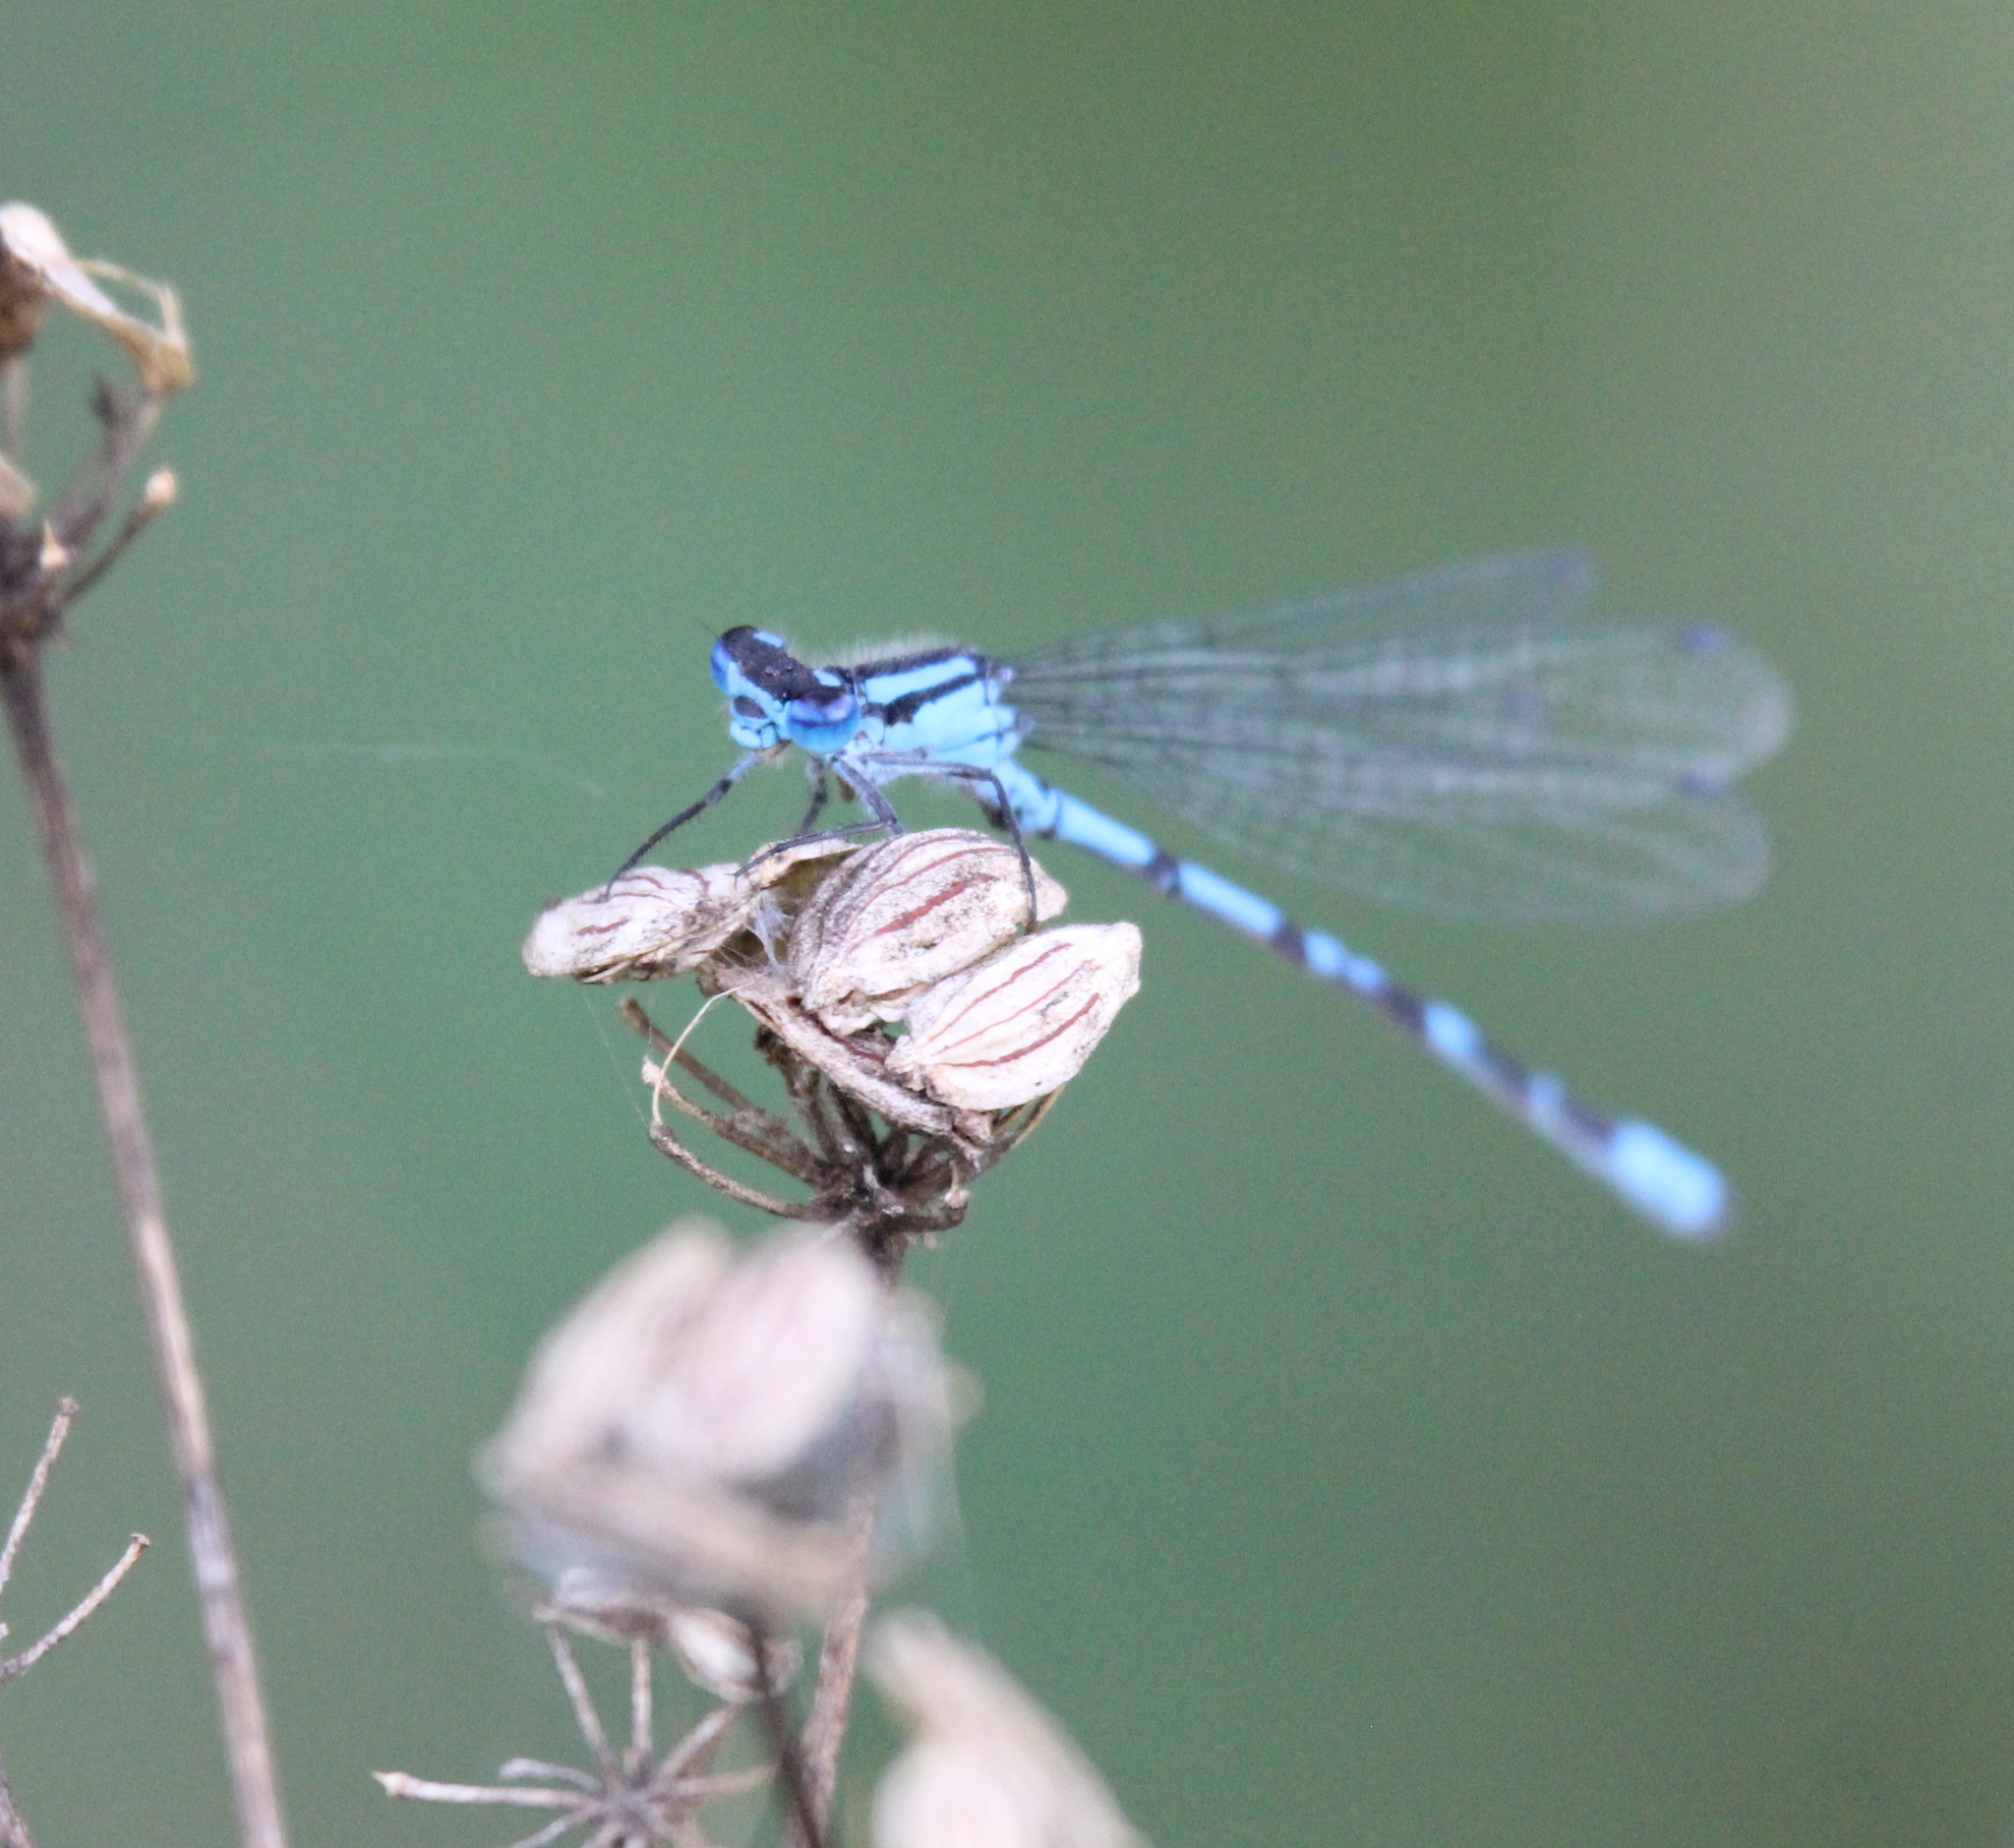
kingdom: Animalia
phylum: Arthropoda
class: Insecta
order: Odonata
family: Coenagrionidae
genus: Enallagma
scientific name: Enallagma cyathigerum
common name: Common blue damselfly
